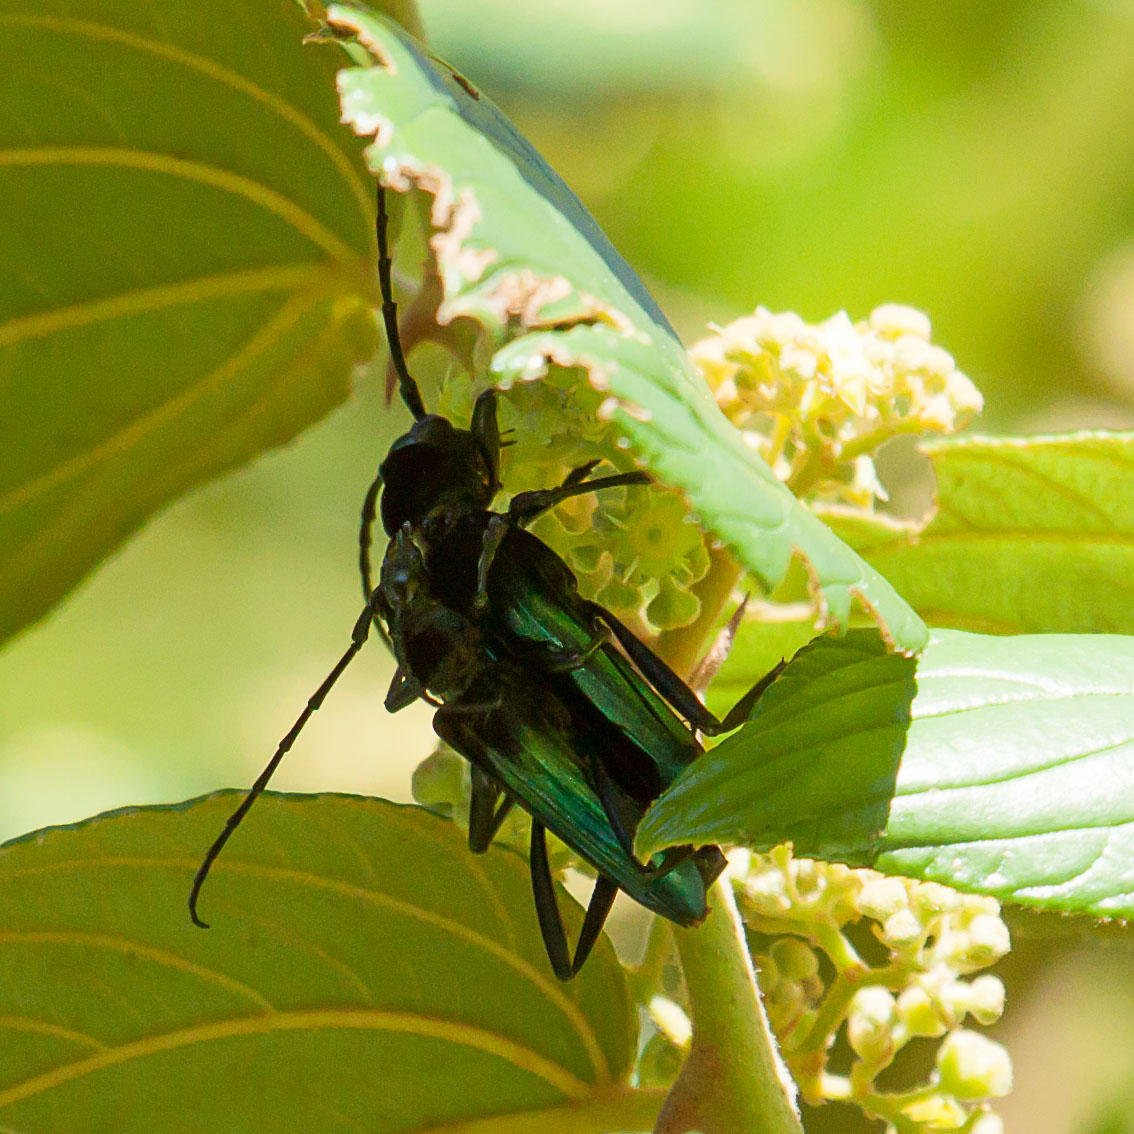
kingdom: Animalia
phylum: Arthropoda
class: Insecta
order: Coleoptera
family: Cerambycidae
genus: Phasganocnema
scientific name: Phasganocnema melanianthe
